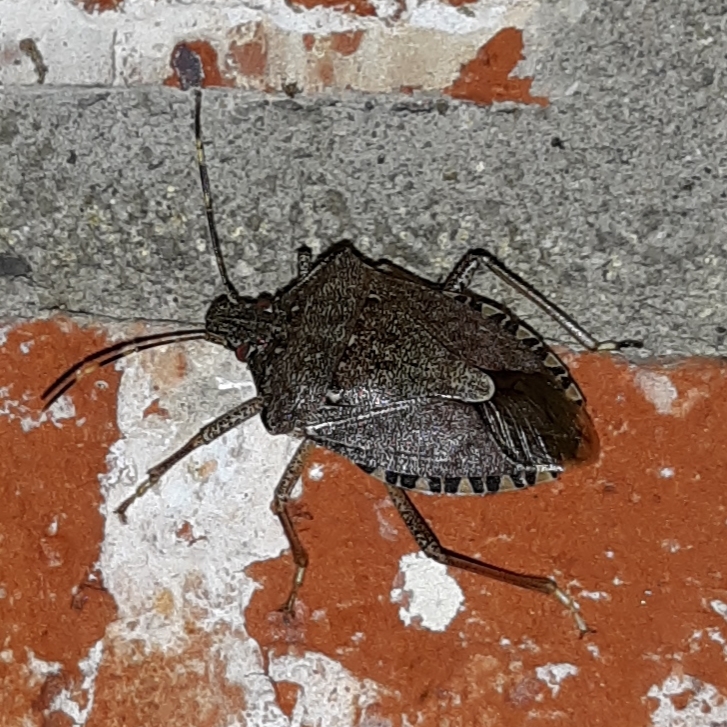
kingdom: Animalia
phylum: Arthropoda
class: Insecta
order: Hemiptera
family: Pentatomidae
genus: Halyomorpha
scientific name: Halyomorpha halys
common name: Brown marmorated stink bug
